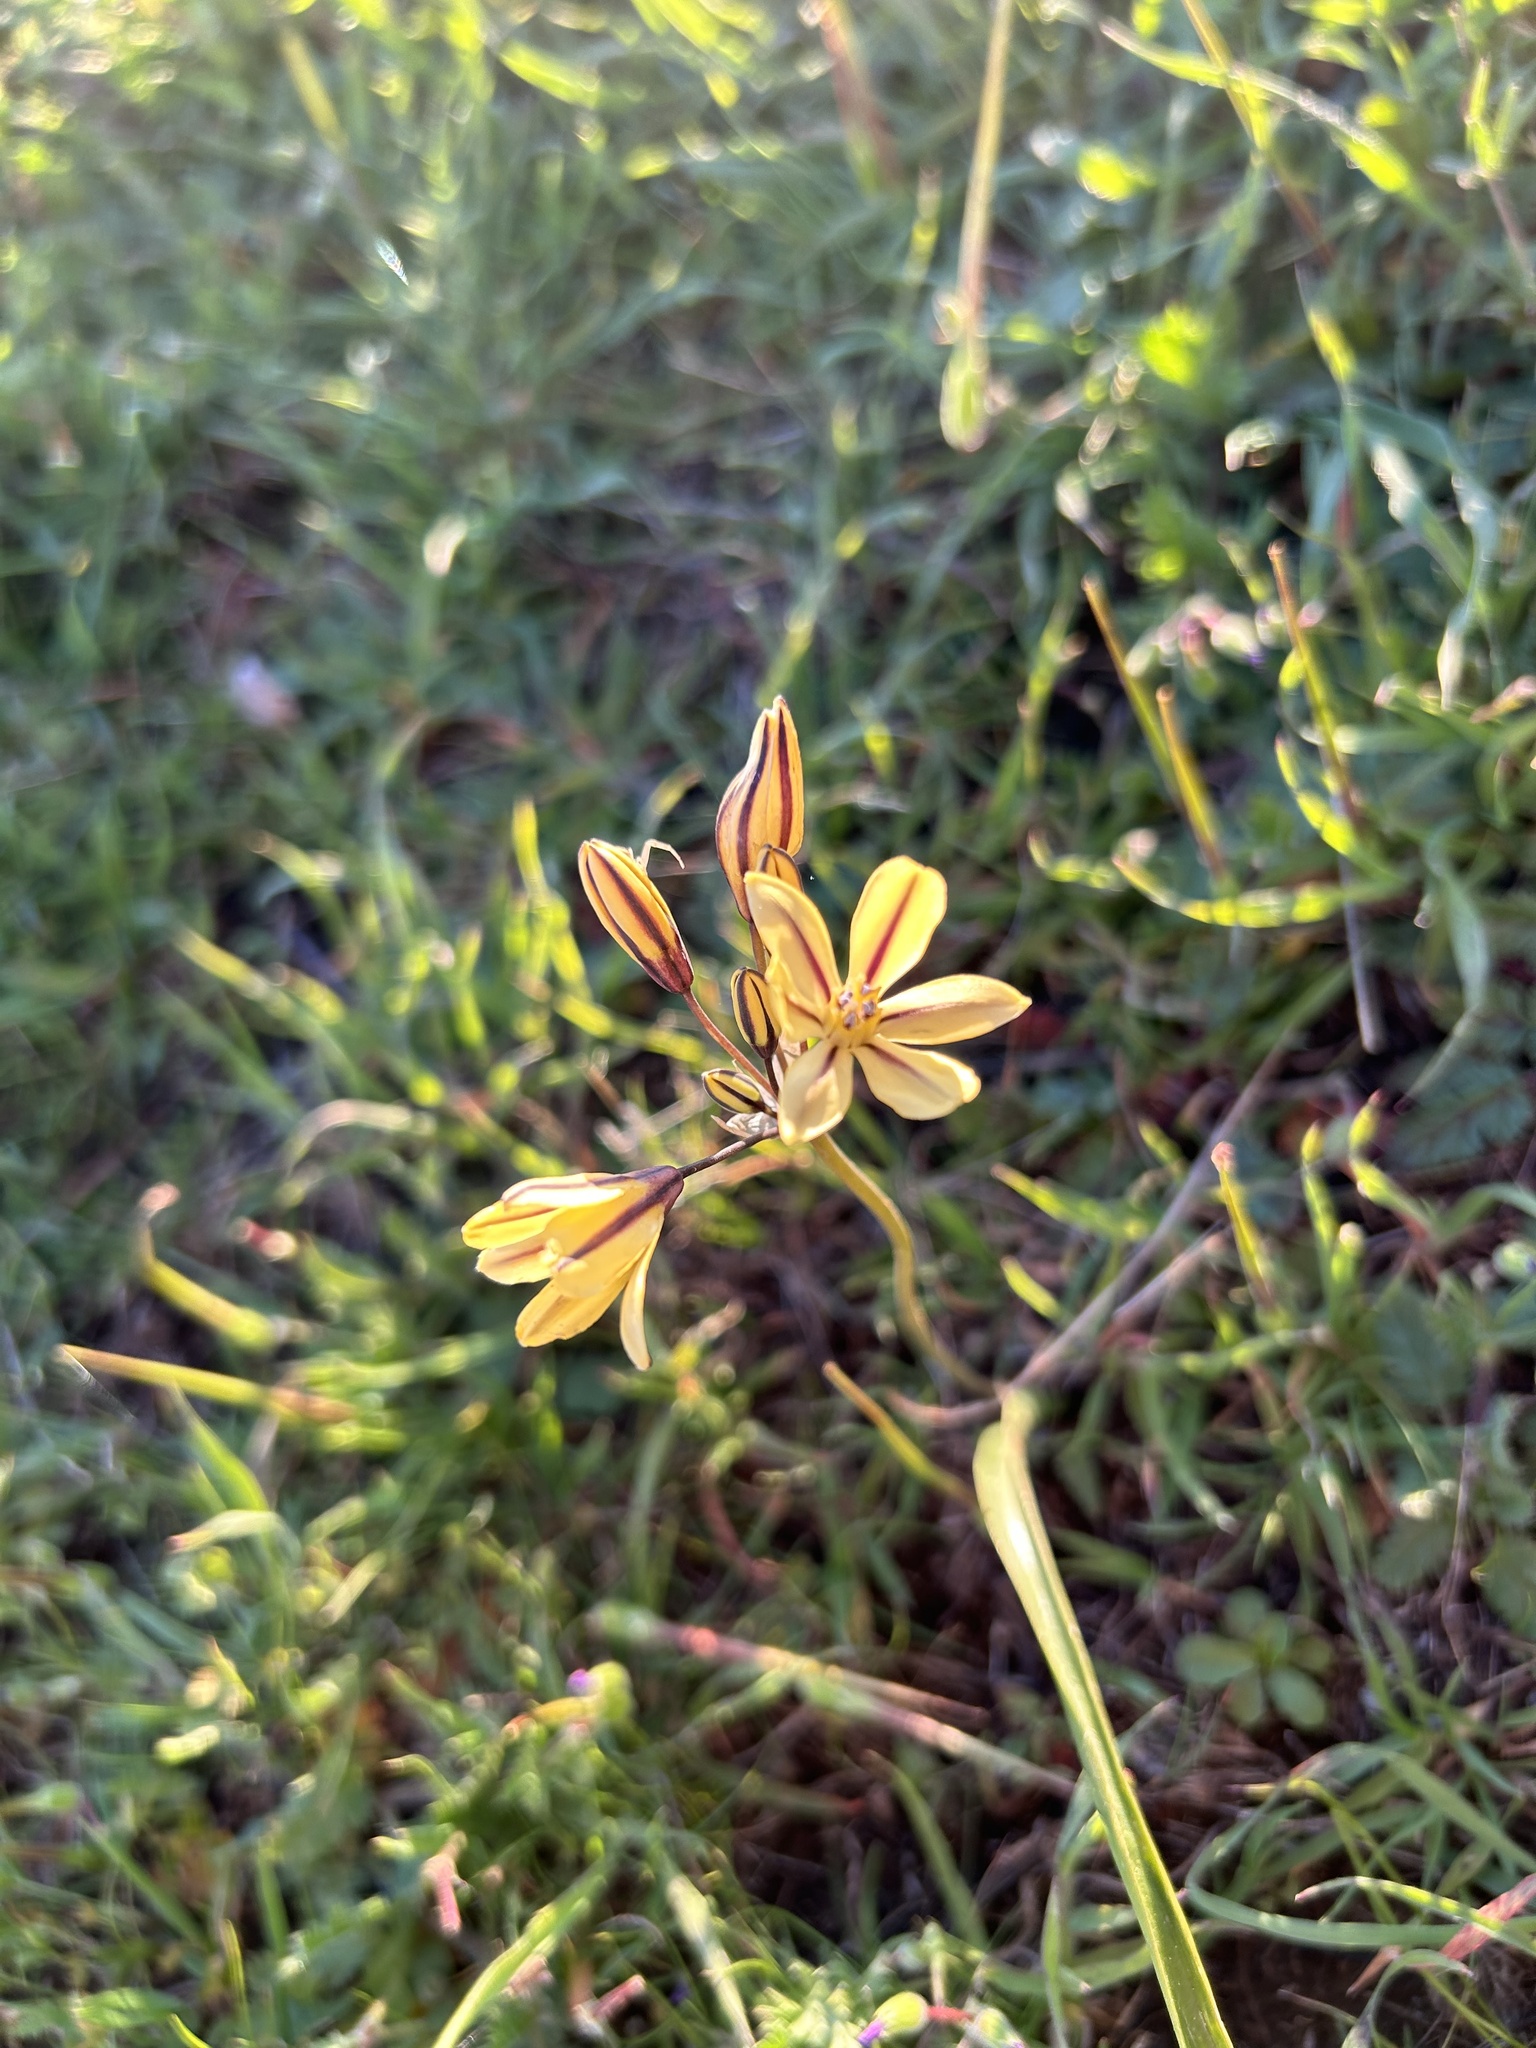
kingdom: Plantae
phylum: Tracheophyta
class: Liliopsida
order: Asparagales
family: Asparagaceae
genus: Triteleia
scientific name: Triteleia ixioides
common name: Yellow-brodiaea
